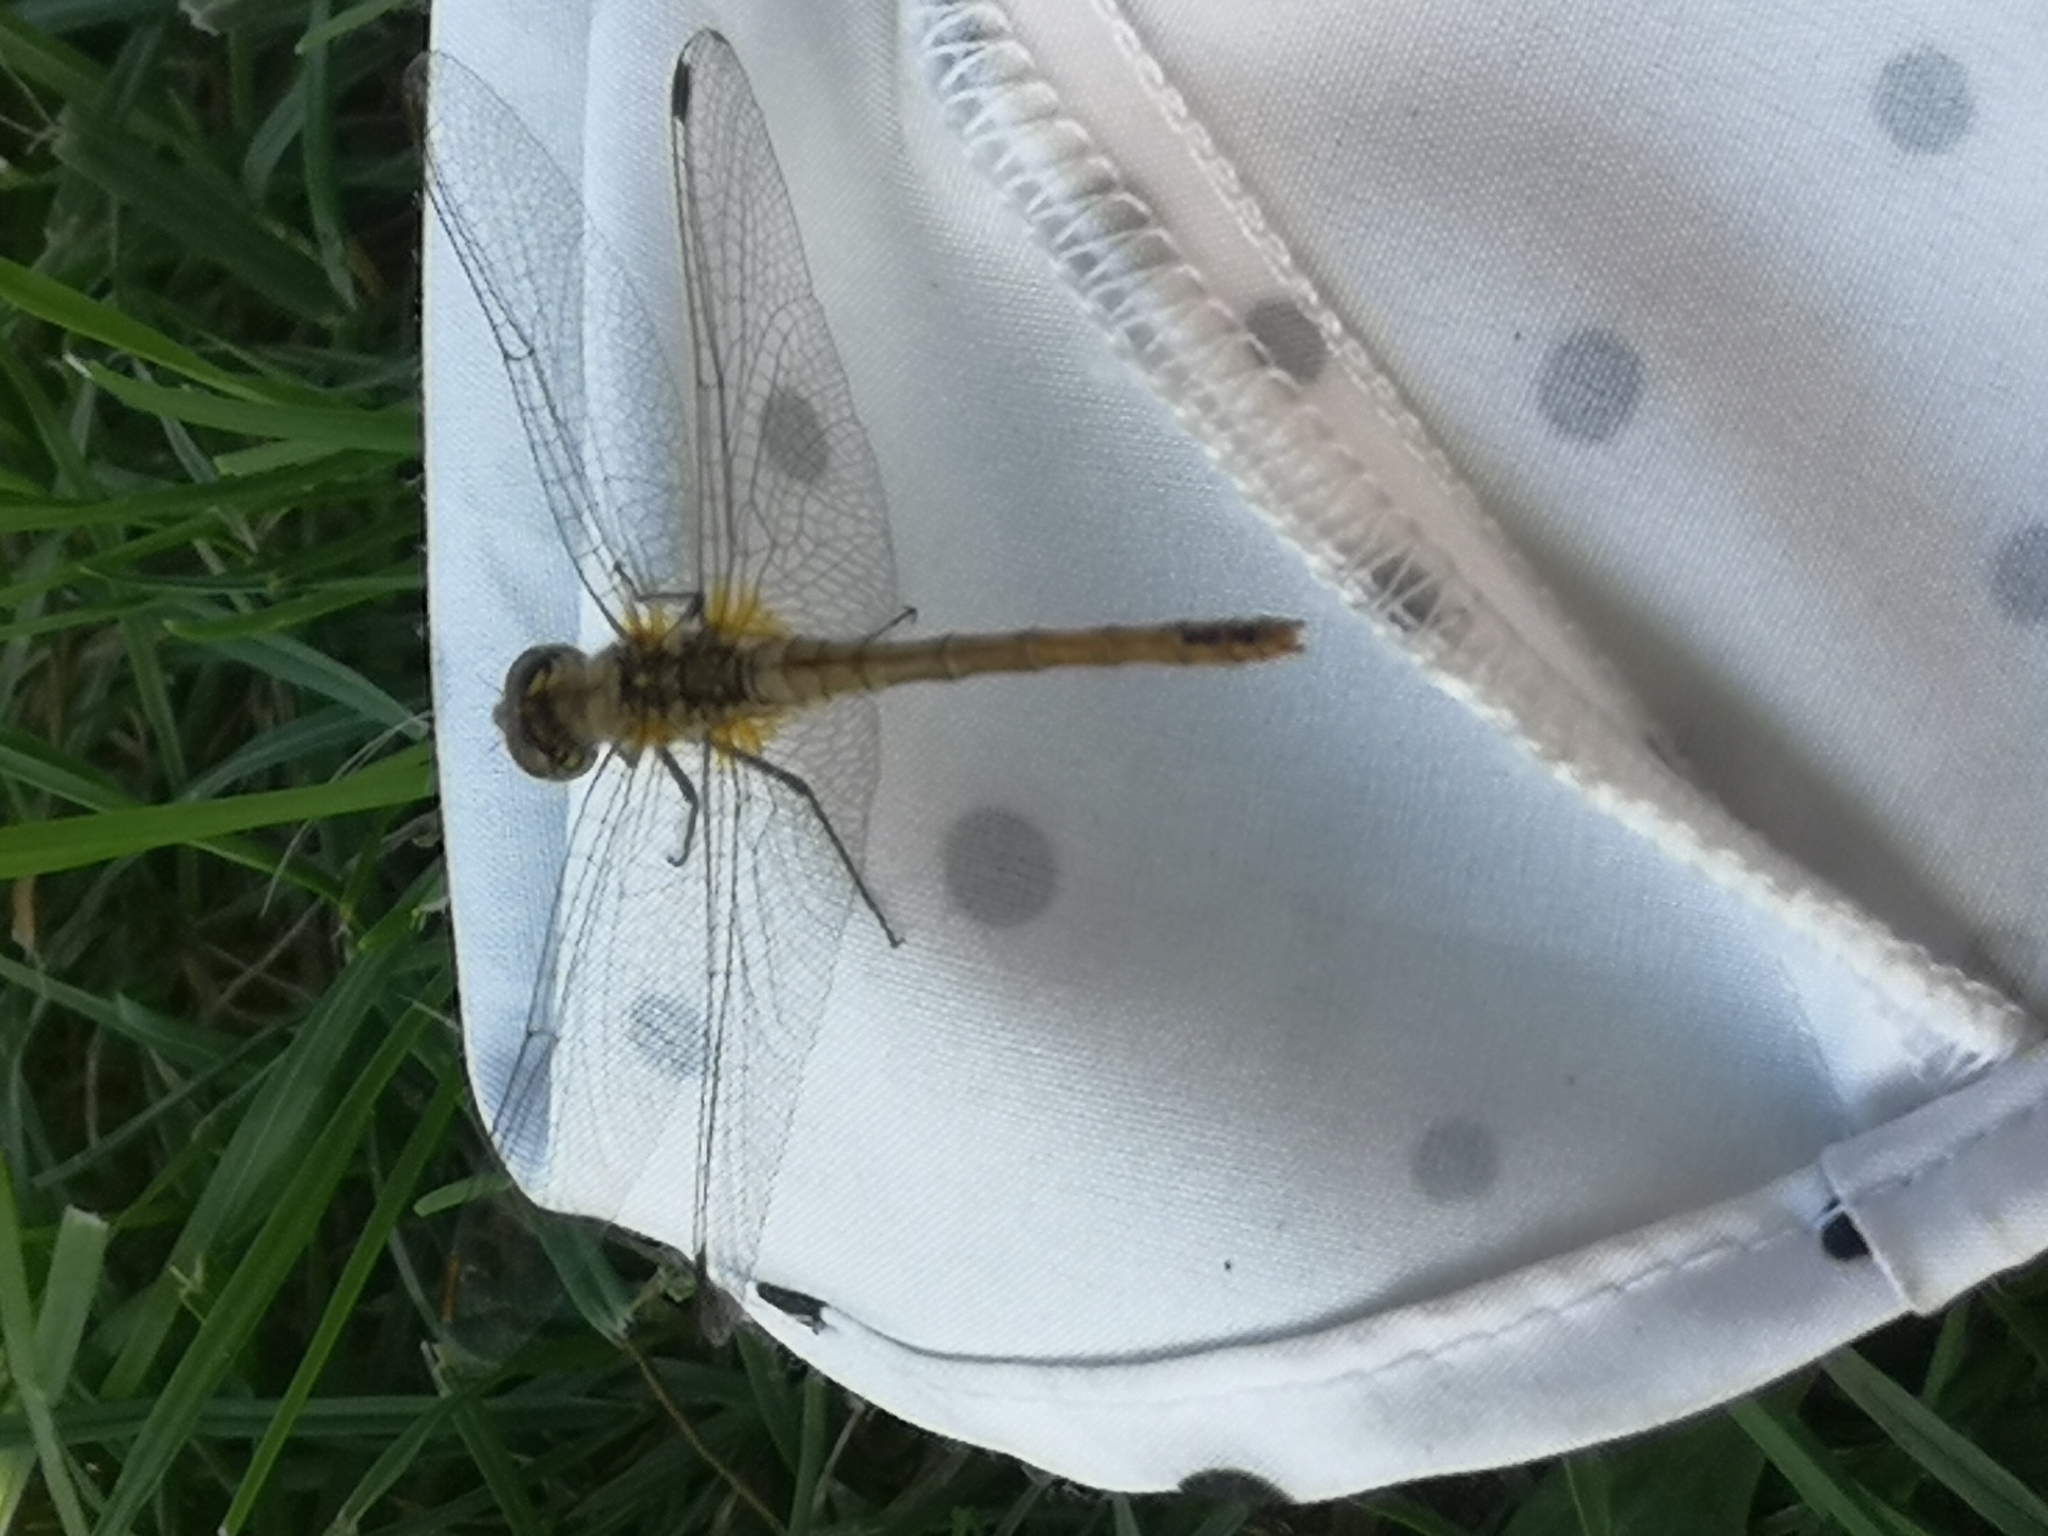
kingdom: Animalia
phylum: Arthropoda
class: Insecta
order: Odonata
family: Libellulidae
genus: Sympetrum
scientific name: Sympetrum sanguineum
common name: Ruddy darter
